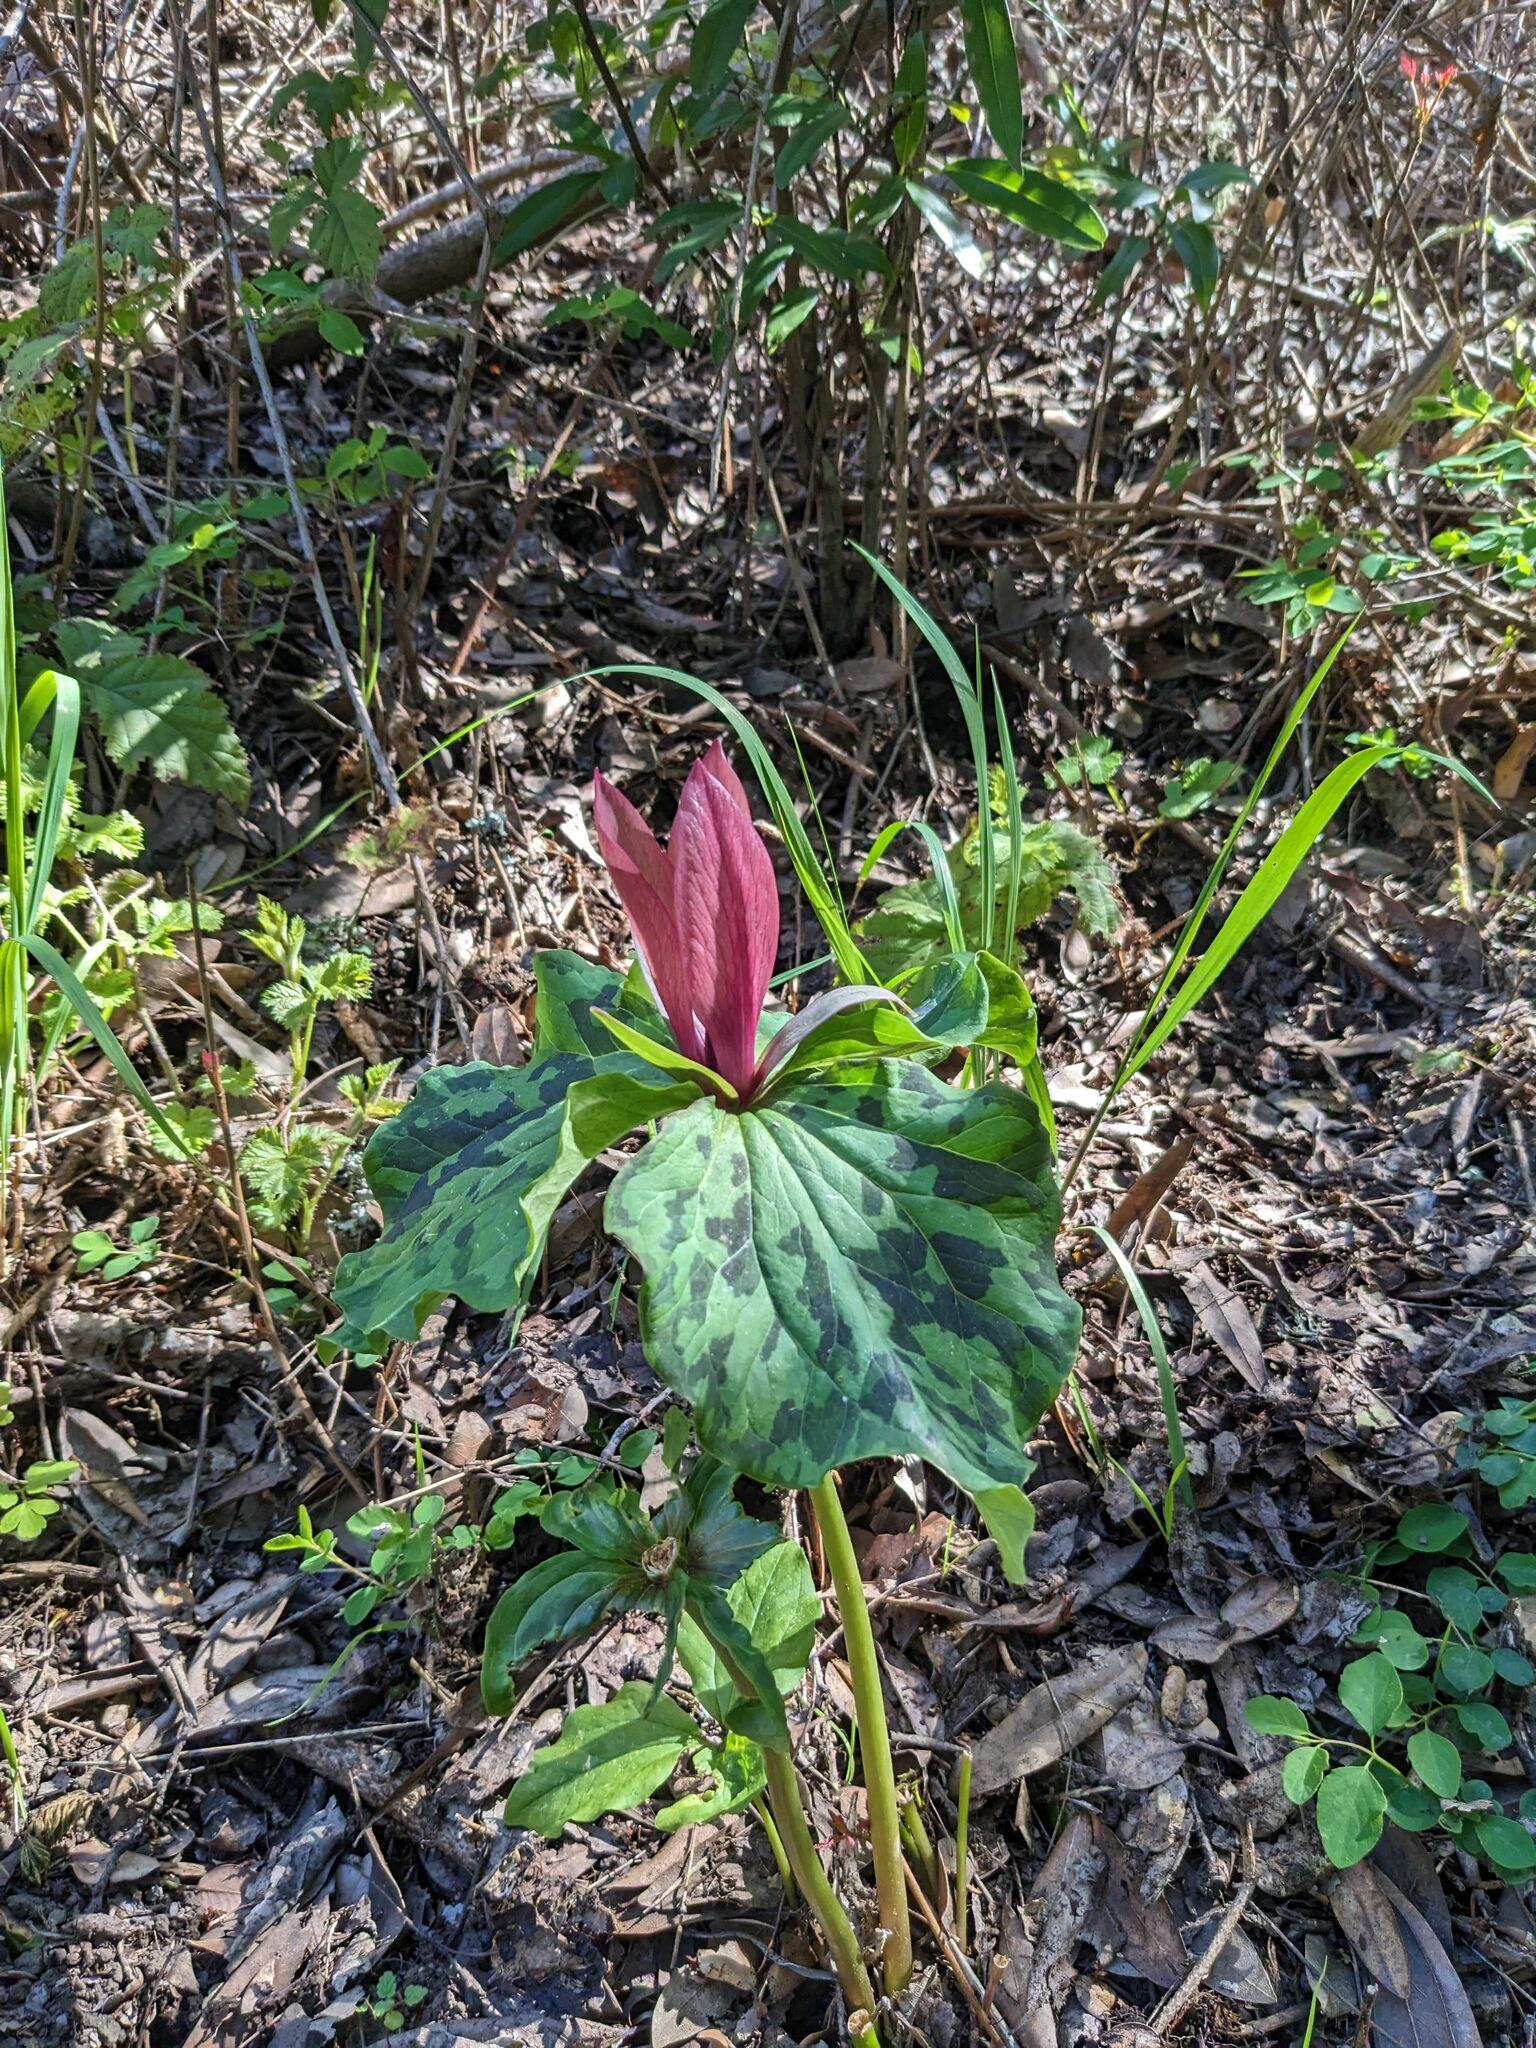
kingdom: Plantae
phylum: Tracheophyta
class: Liliopsida
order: Liliales
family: Melanthiaceae
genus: Trillium
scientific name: Trillium chloropetalum
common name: Giant trillium
